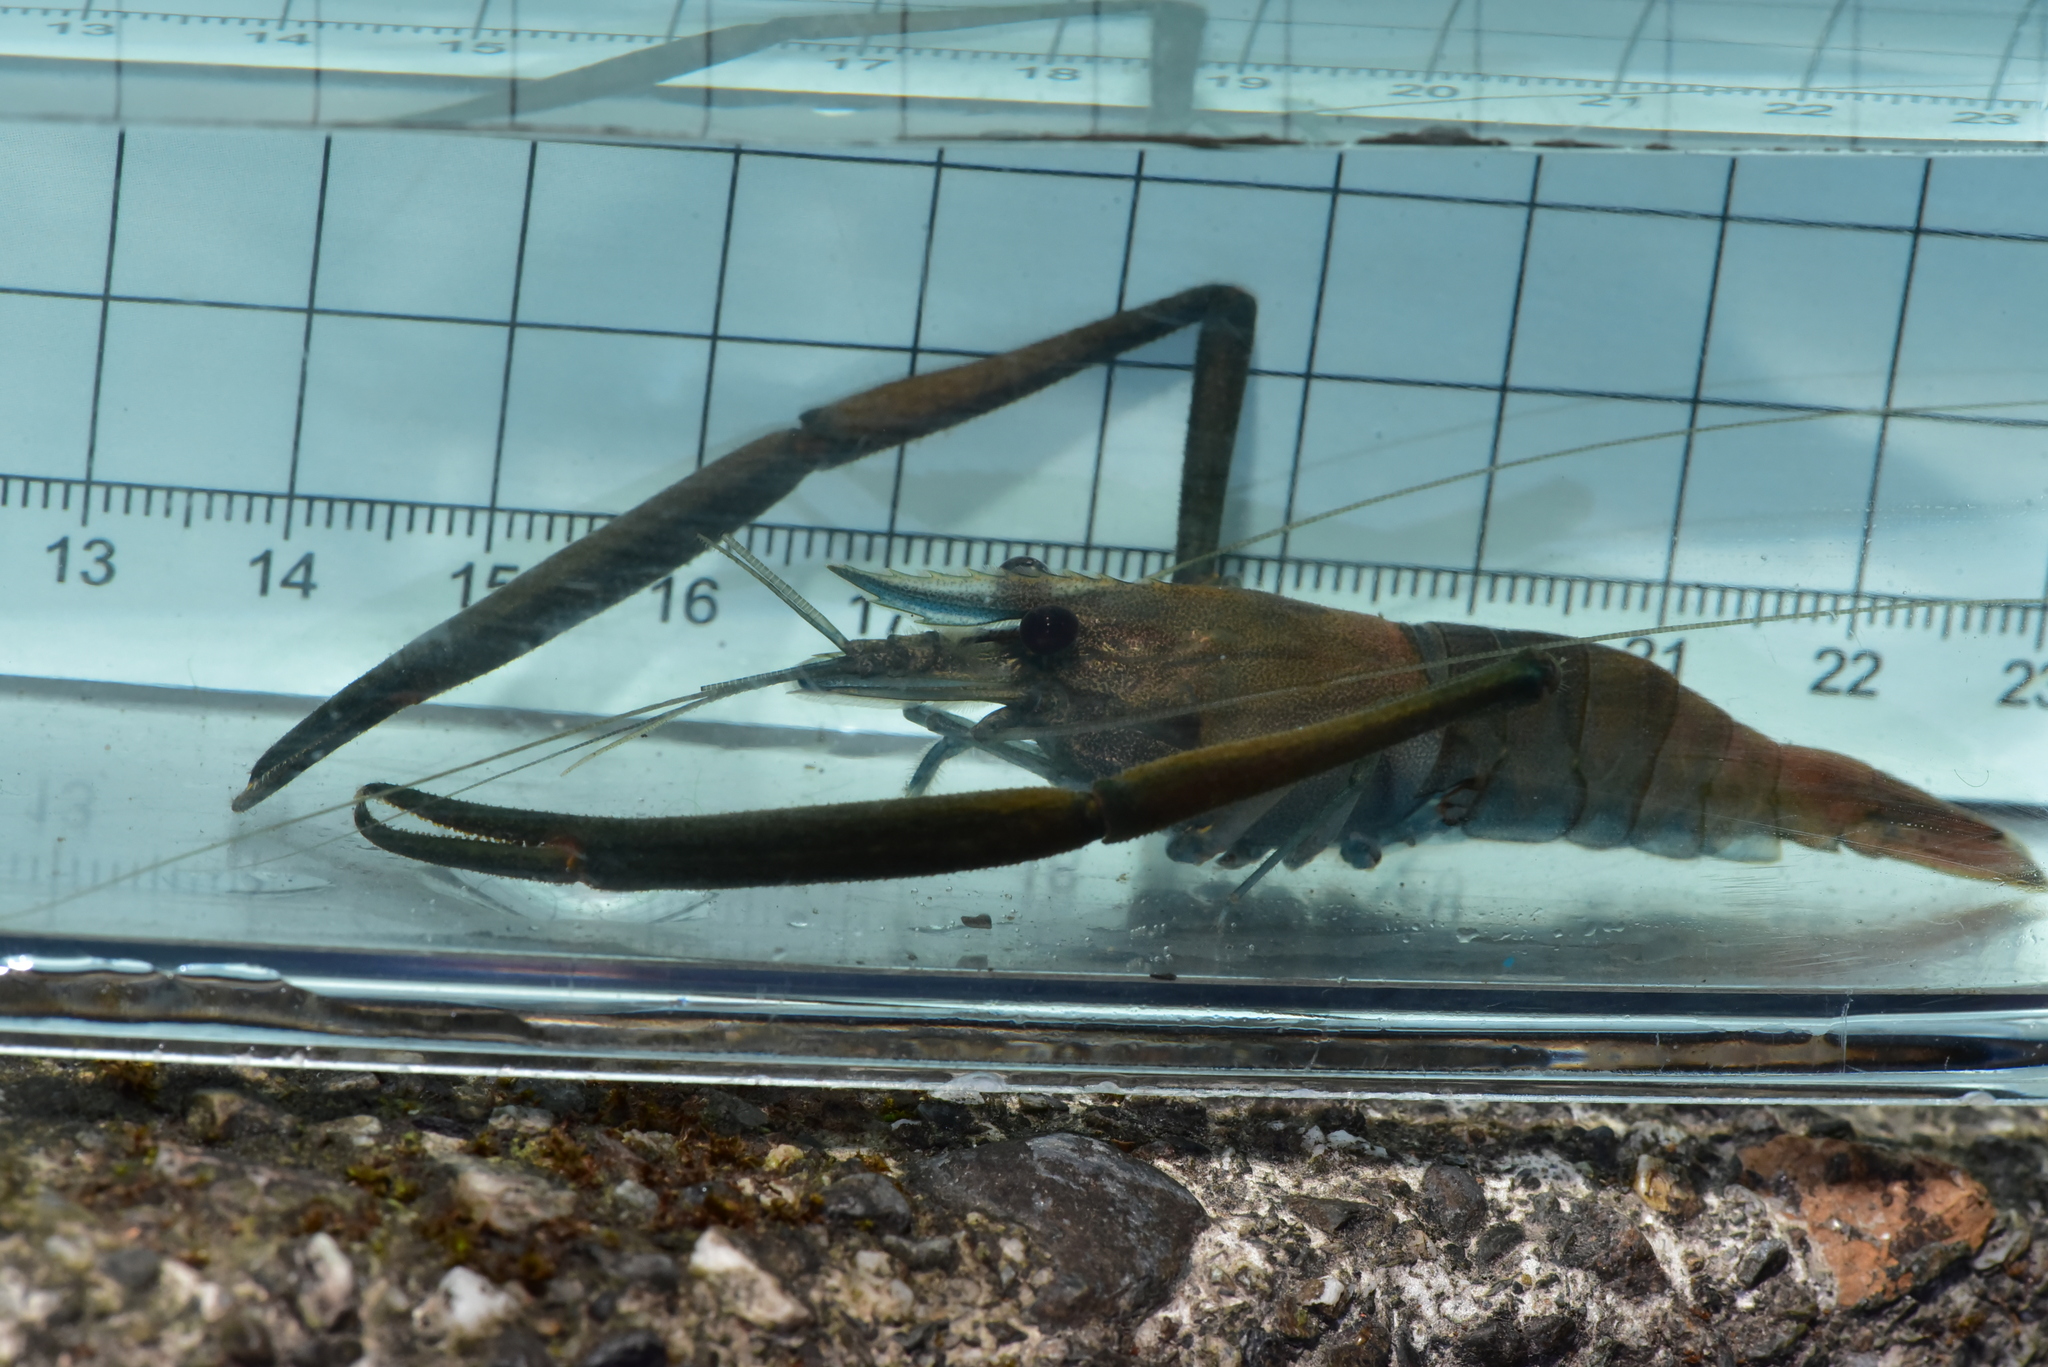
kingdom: Animalia
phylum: Arthropoda
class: Malacostraca
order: Decapoda
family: Palaemonidae
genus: Macrobrachium
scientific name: Macrobrachium lar
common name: Monkey river prawn
